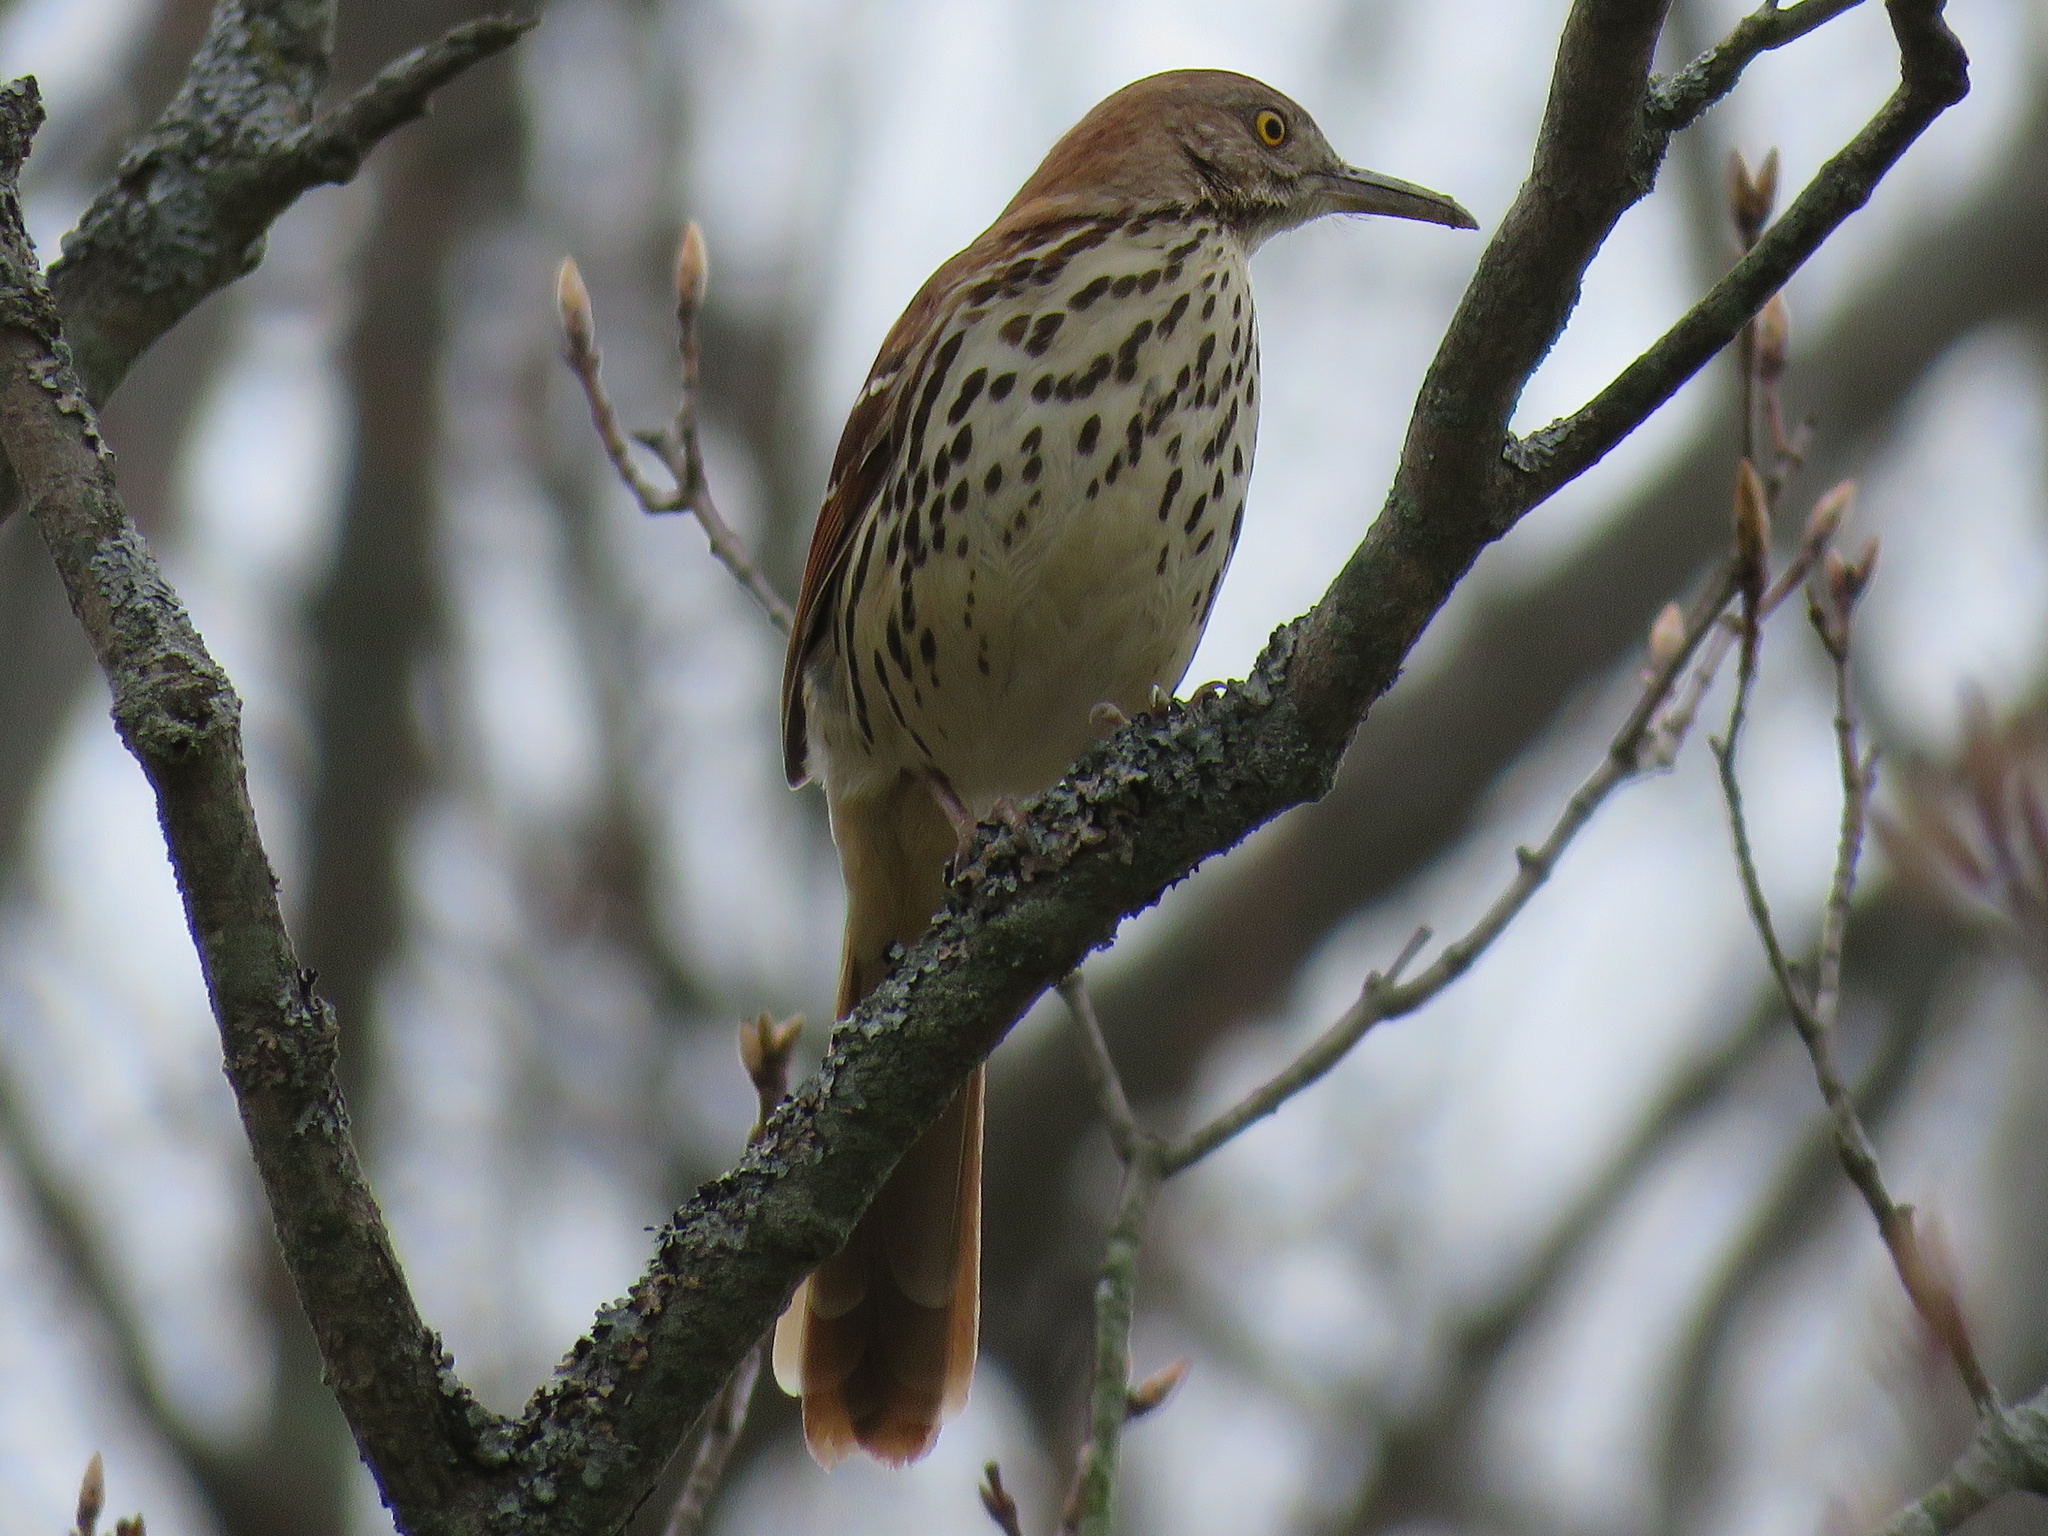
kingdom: Animalia
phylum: Chordata
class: Aves
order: Passeriformes
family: Mimidae
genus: Toxostoma
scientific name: Toxostoma rufum
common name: Brown thrasher
